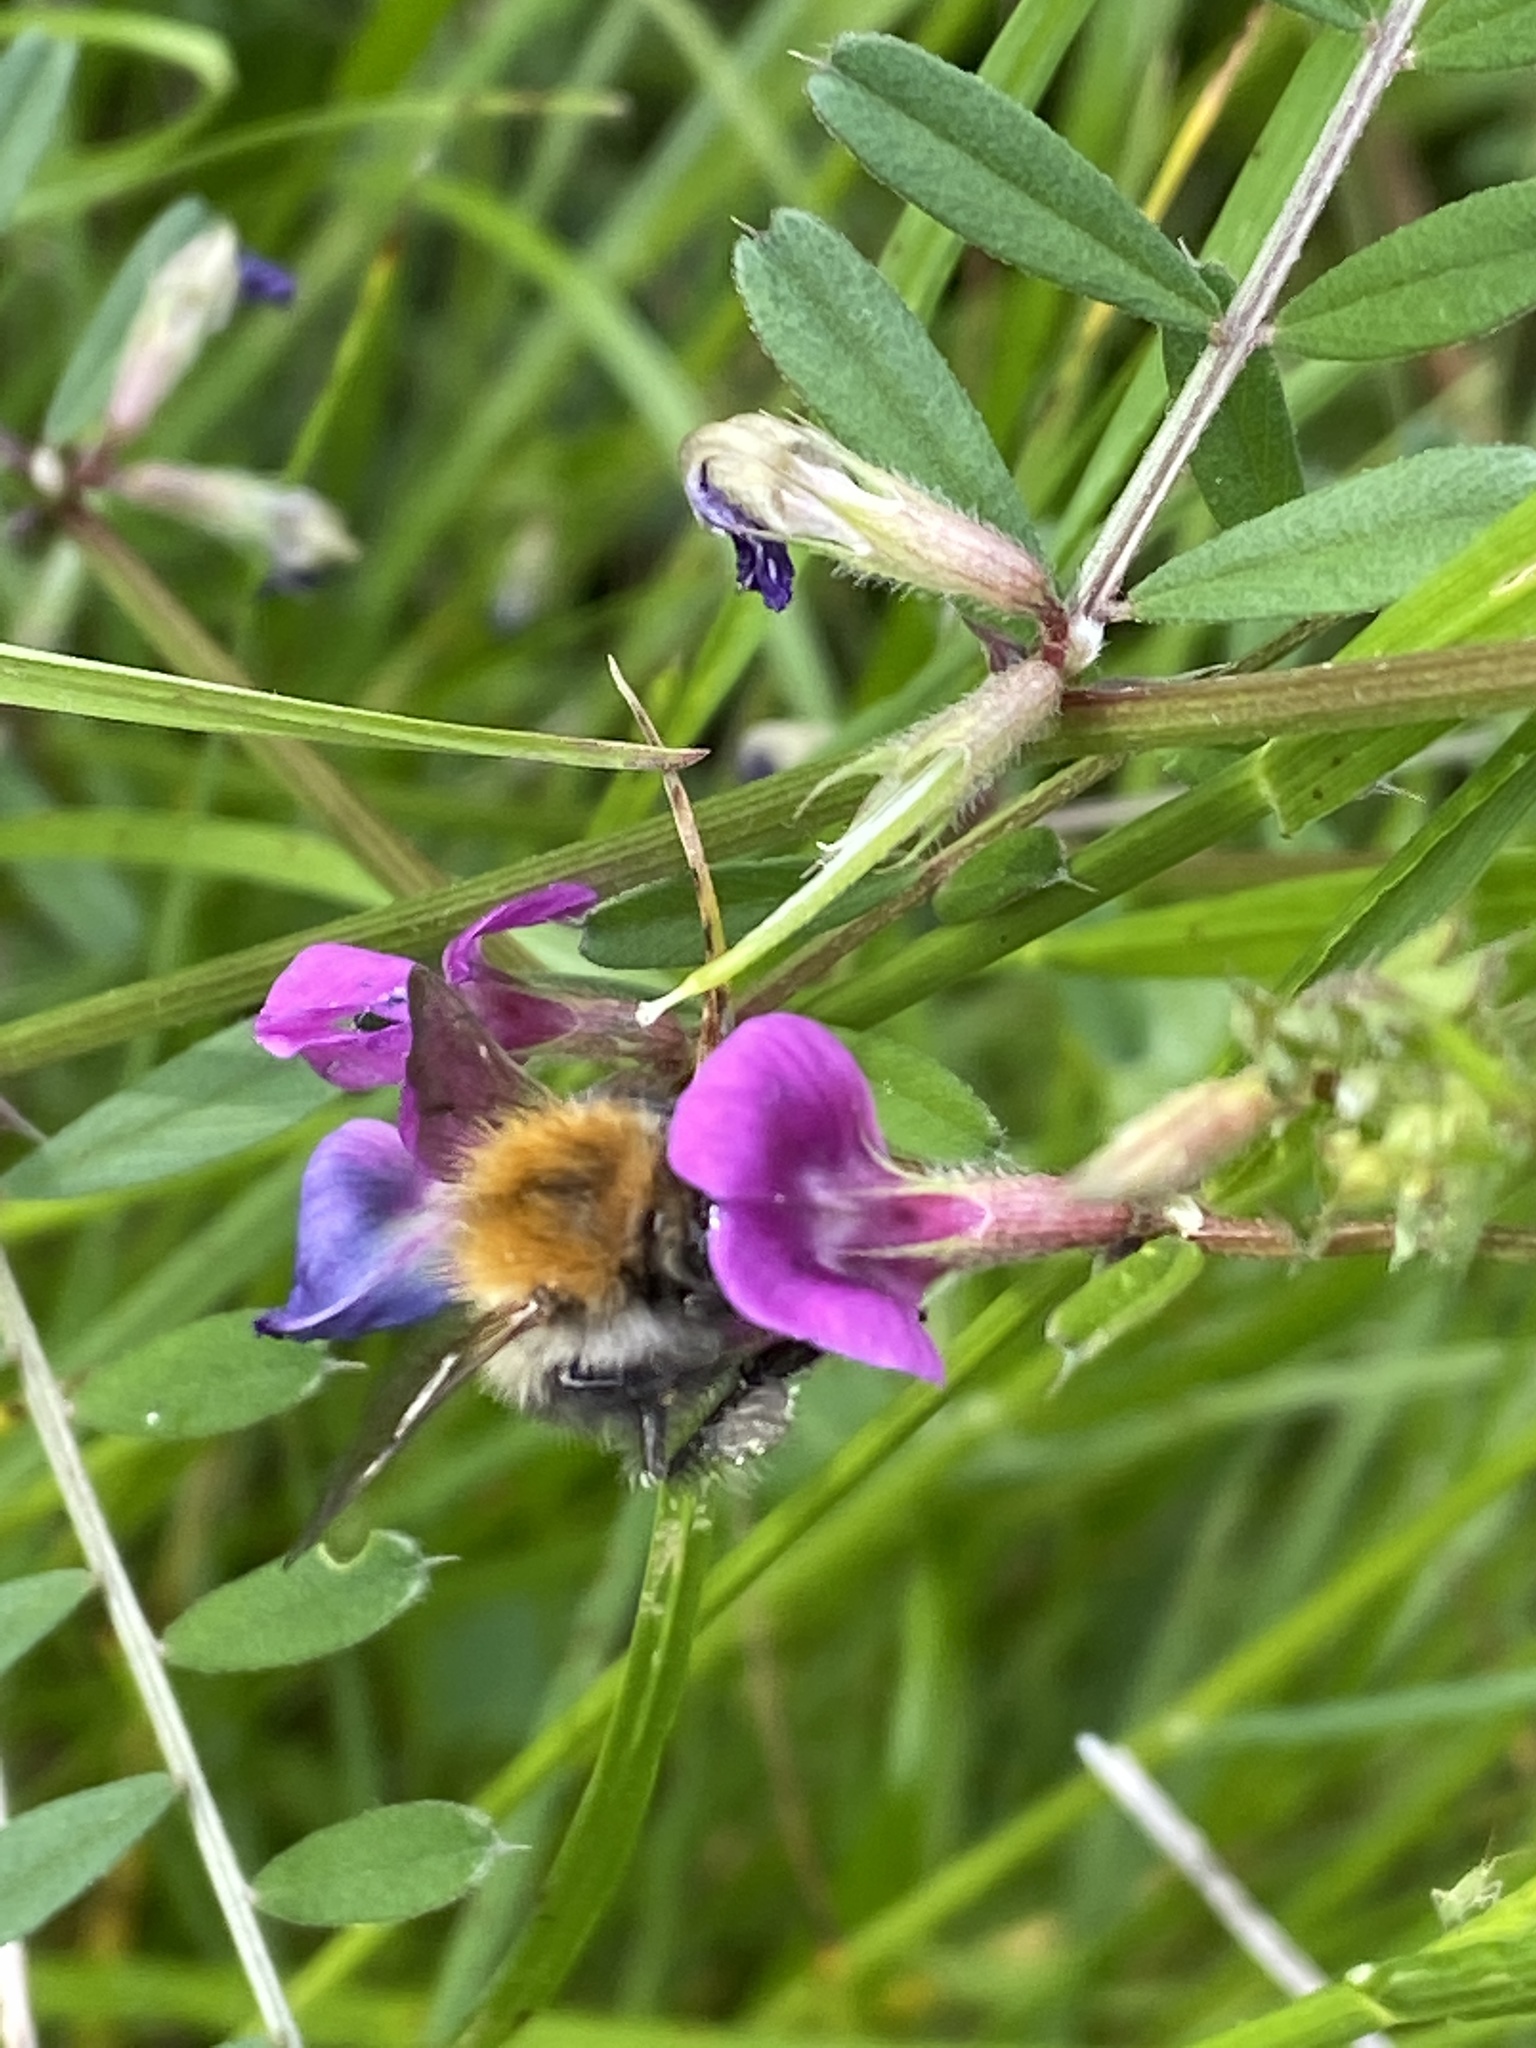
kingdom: Animalia
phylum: Arthropoda
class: Insecta
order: Hymenoptera
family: Apidae
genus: Bombus
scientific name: Bombus pascuorum
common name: Common carder bee
